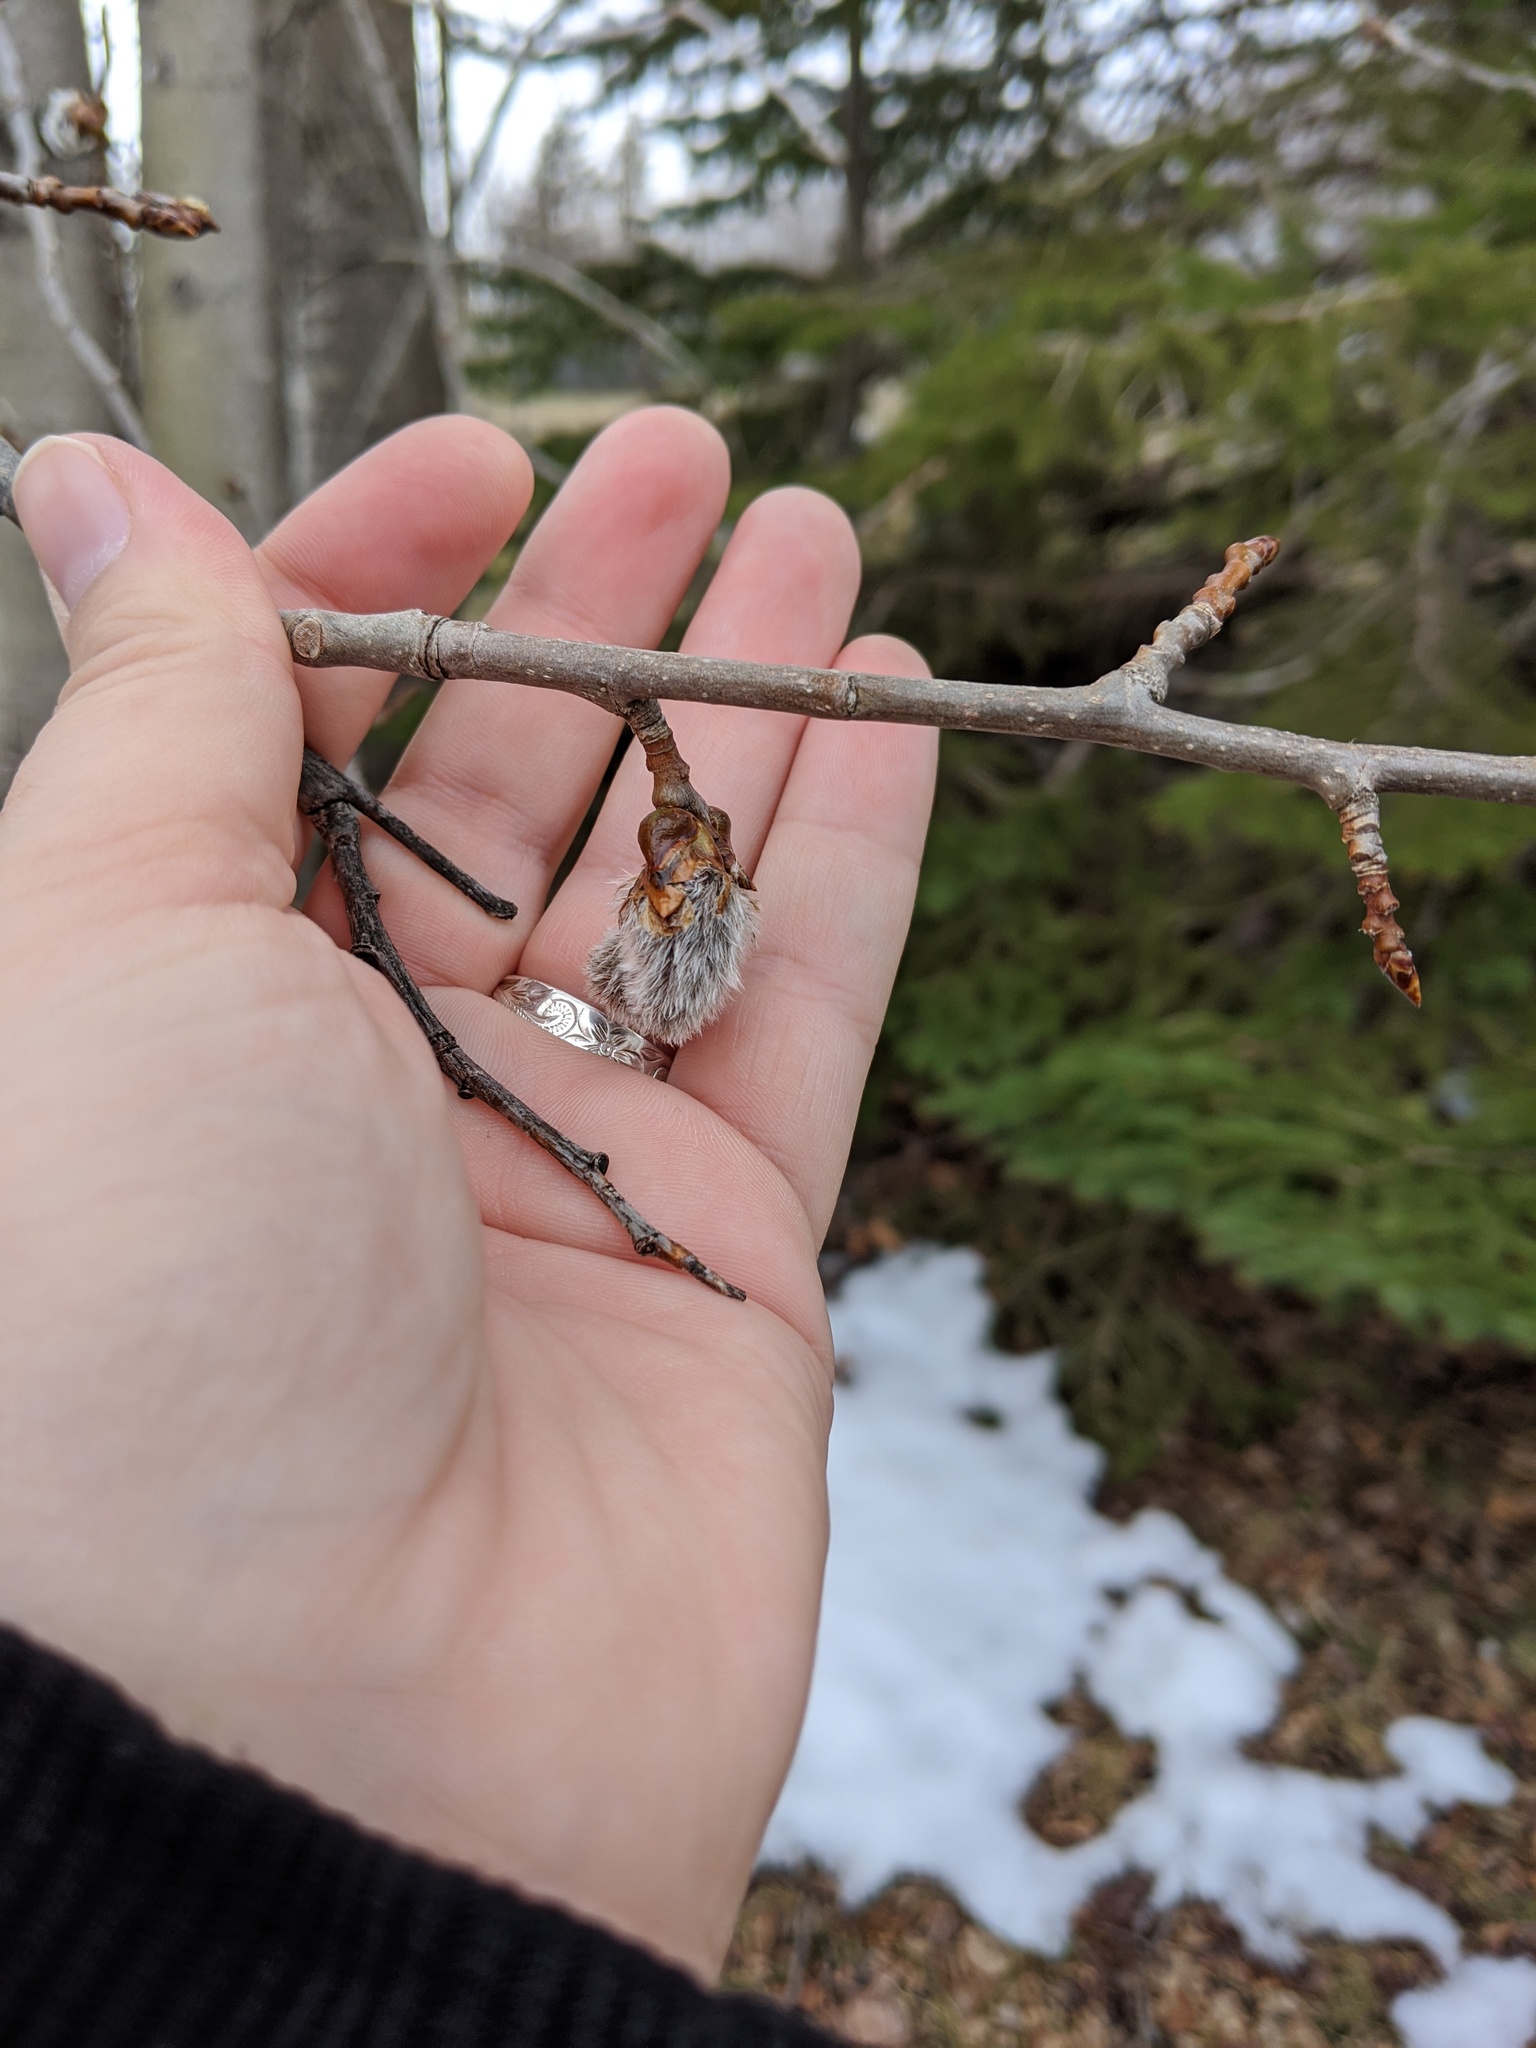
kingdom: Plantae
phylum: Tracheophyta
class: Magnoliopsida
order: Malpighiales
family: Salicaceae
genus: Populus
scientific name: Populus tremuloides
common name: Quaking aspen
